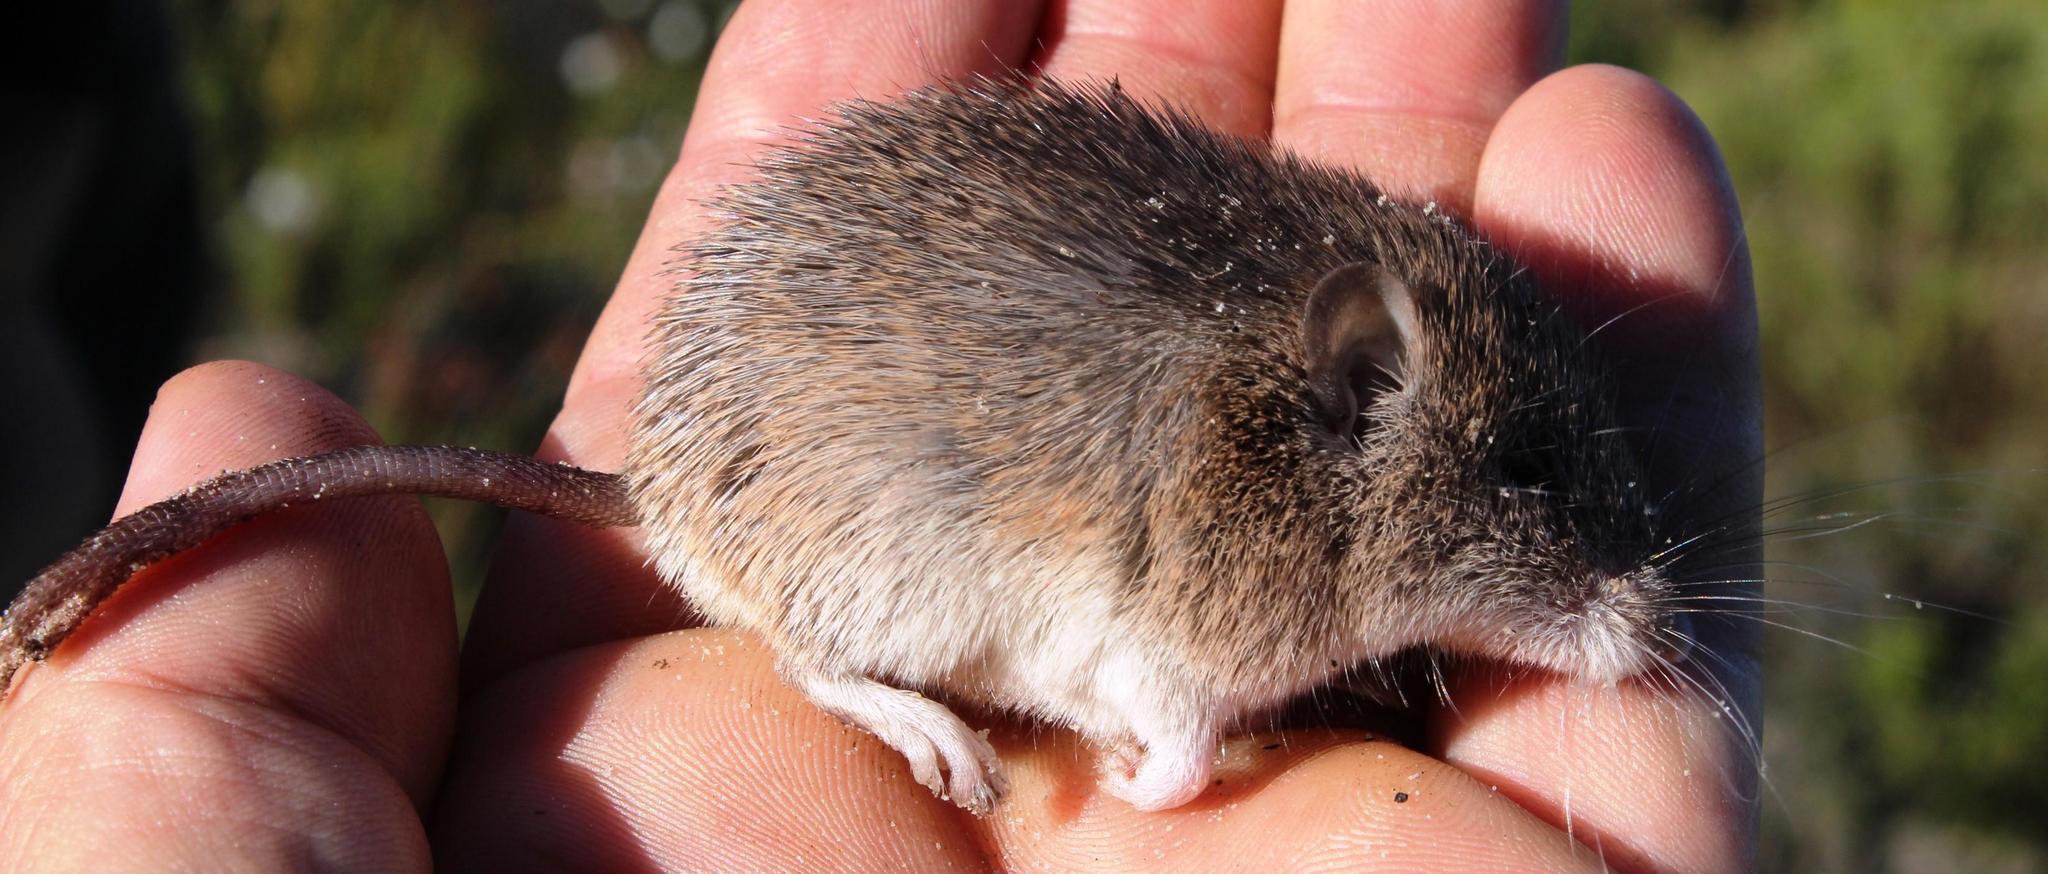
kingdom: Animalia
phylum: Chordata
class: Mammalia
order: Rodentia
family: Muridae
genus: Acomys
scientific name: Acomys subspinosus
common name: Cape spiny mouse
